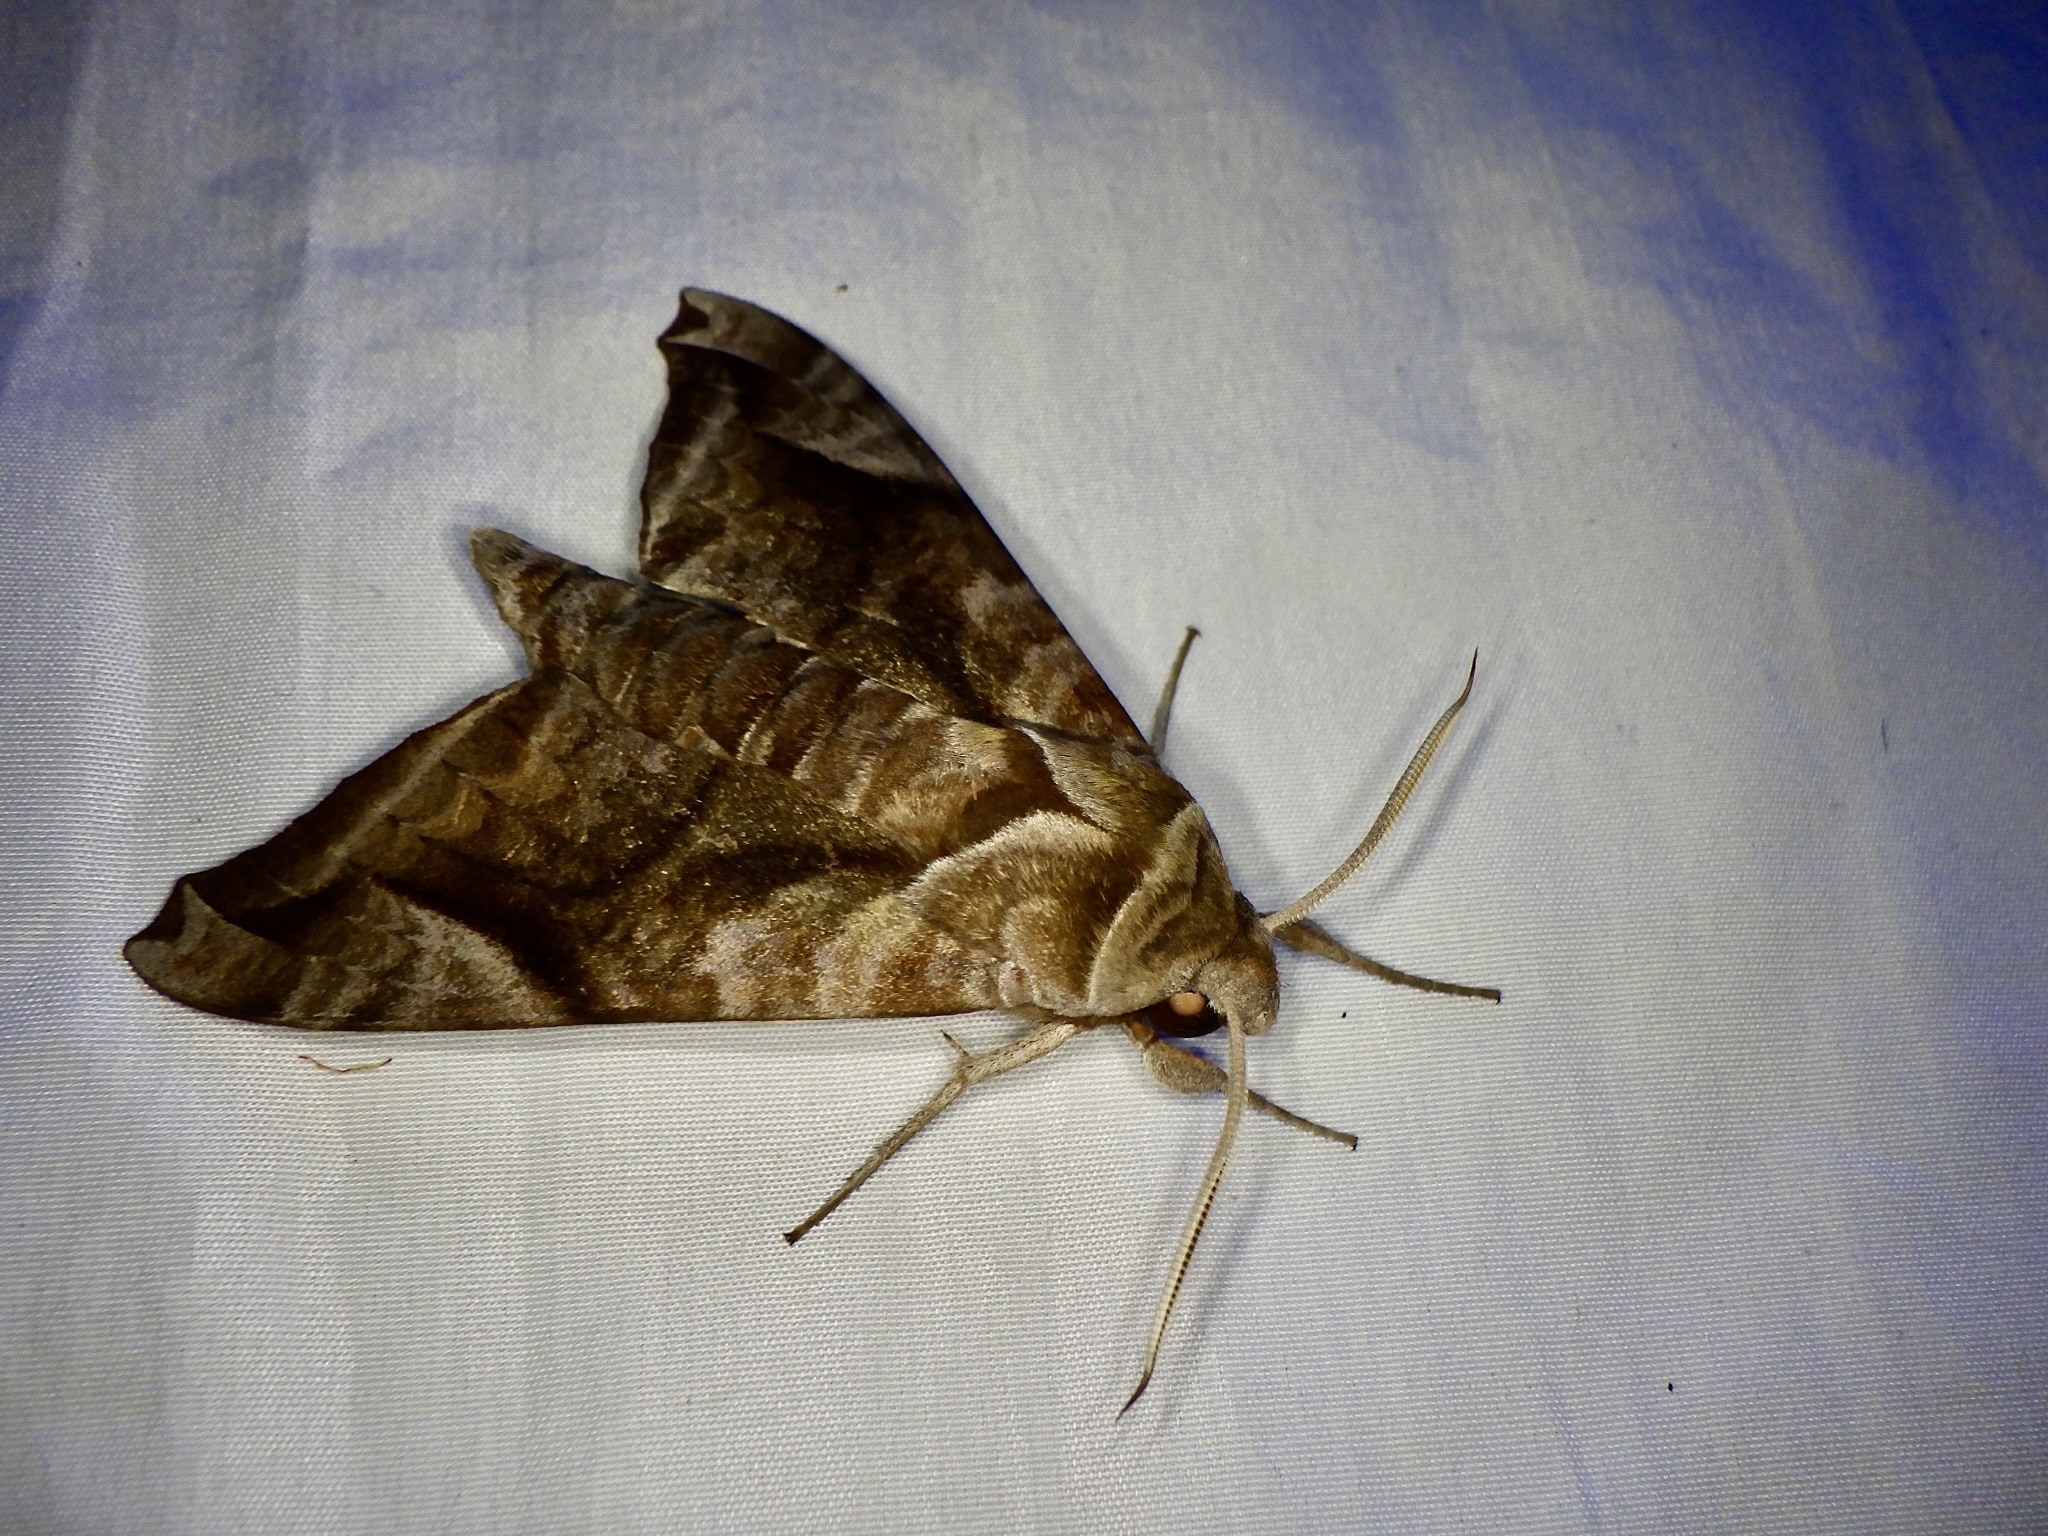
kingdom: Animalia
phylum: Arthropoda
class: Insecta
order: Lepidoptera
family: Sphingidae
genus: Acosmeryx
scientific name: Acosmeryx naga
